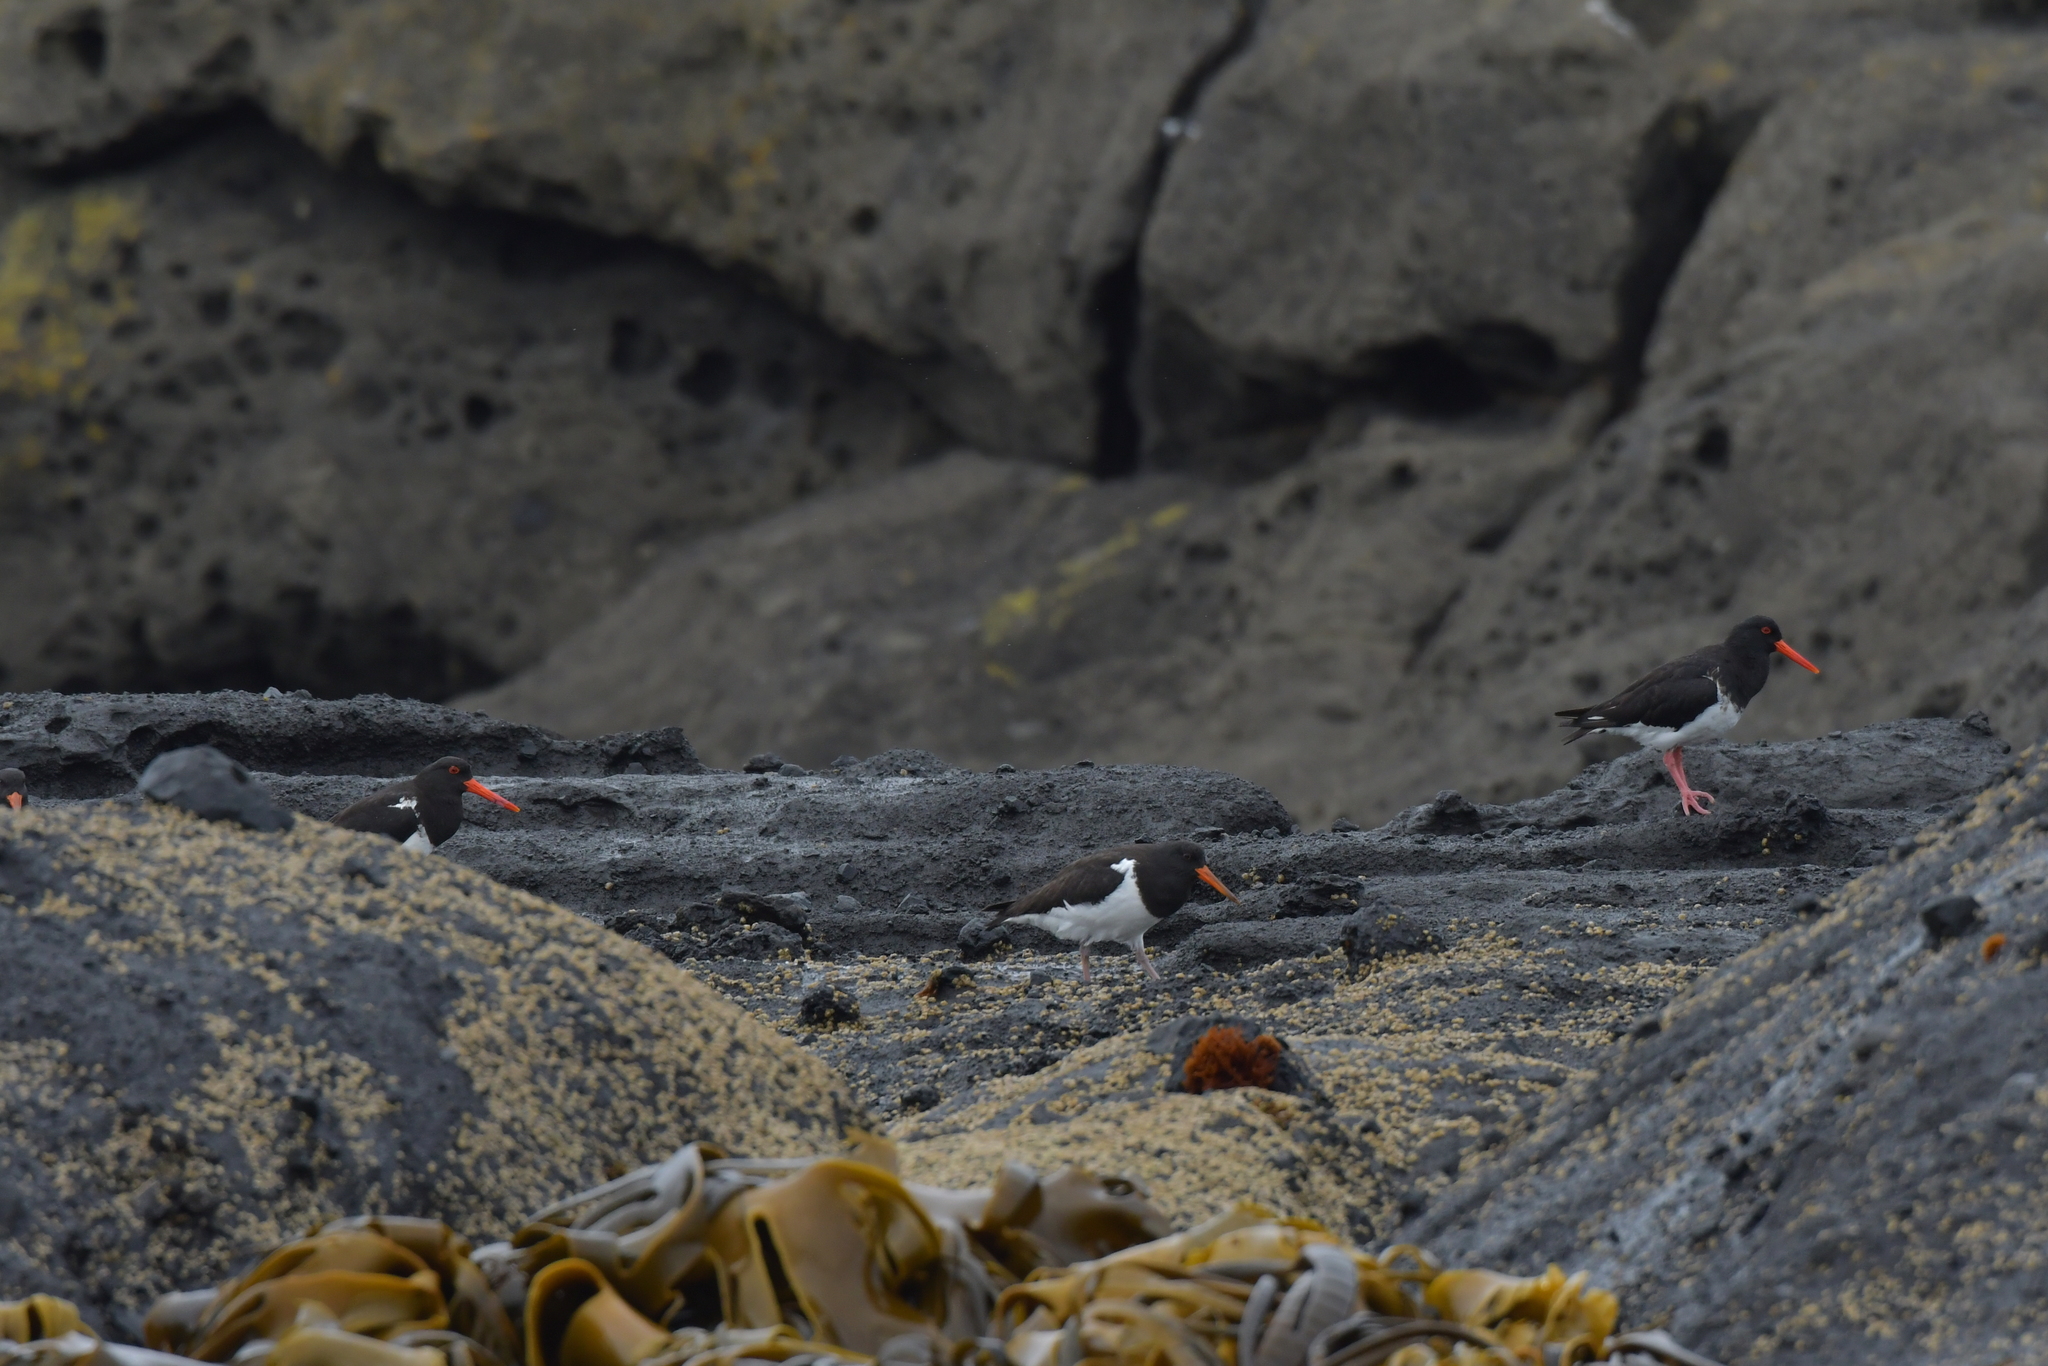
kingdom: Animalia
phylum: Chordata
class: Aves
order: Charadriiformes
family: Haematopodidae
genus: Haematopus
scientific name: Haematopus chathamensis
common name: Chatham oystercatcher
